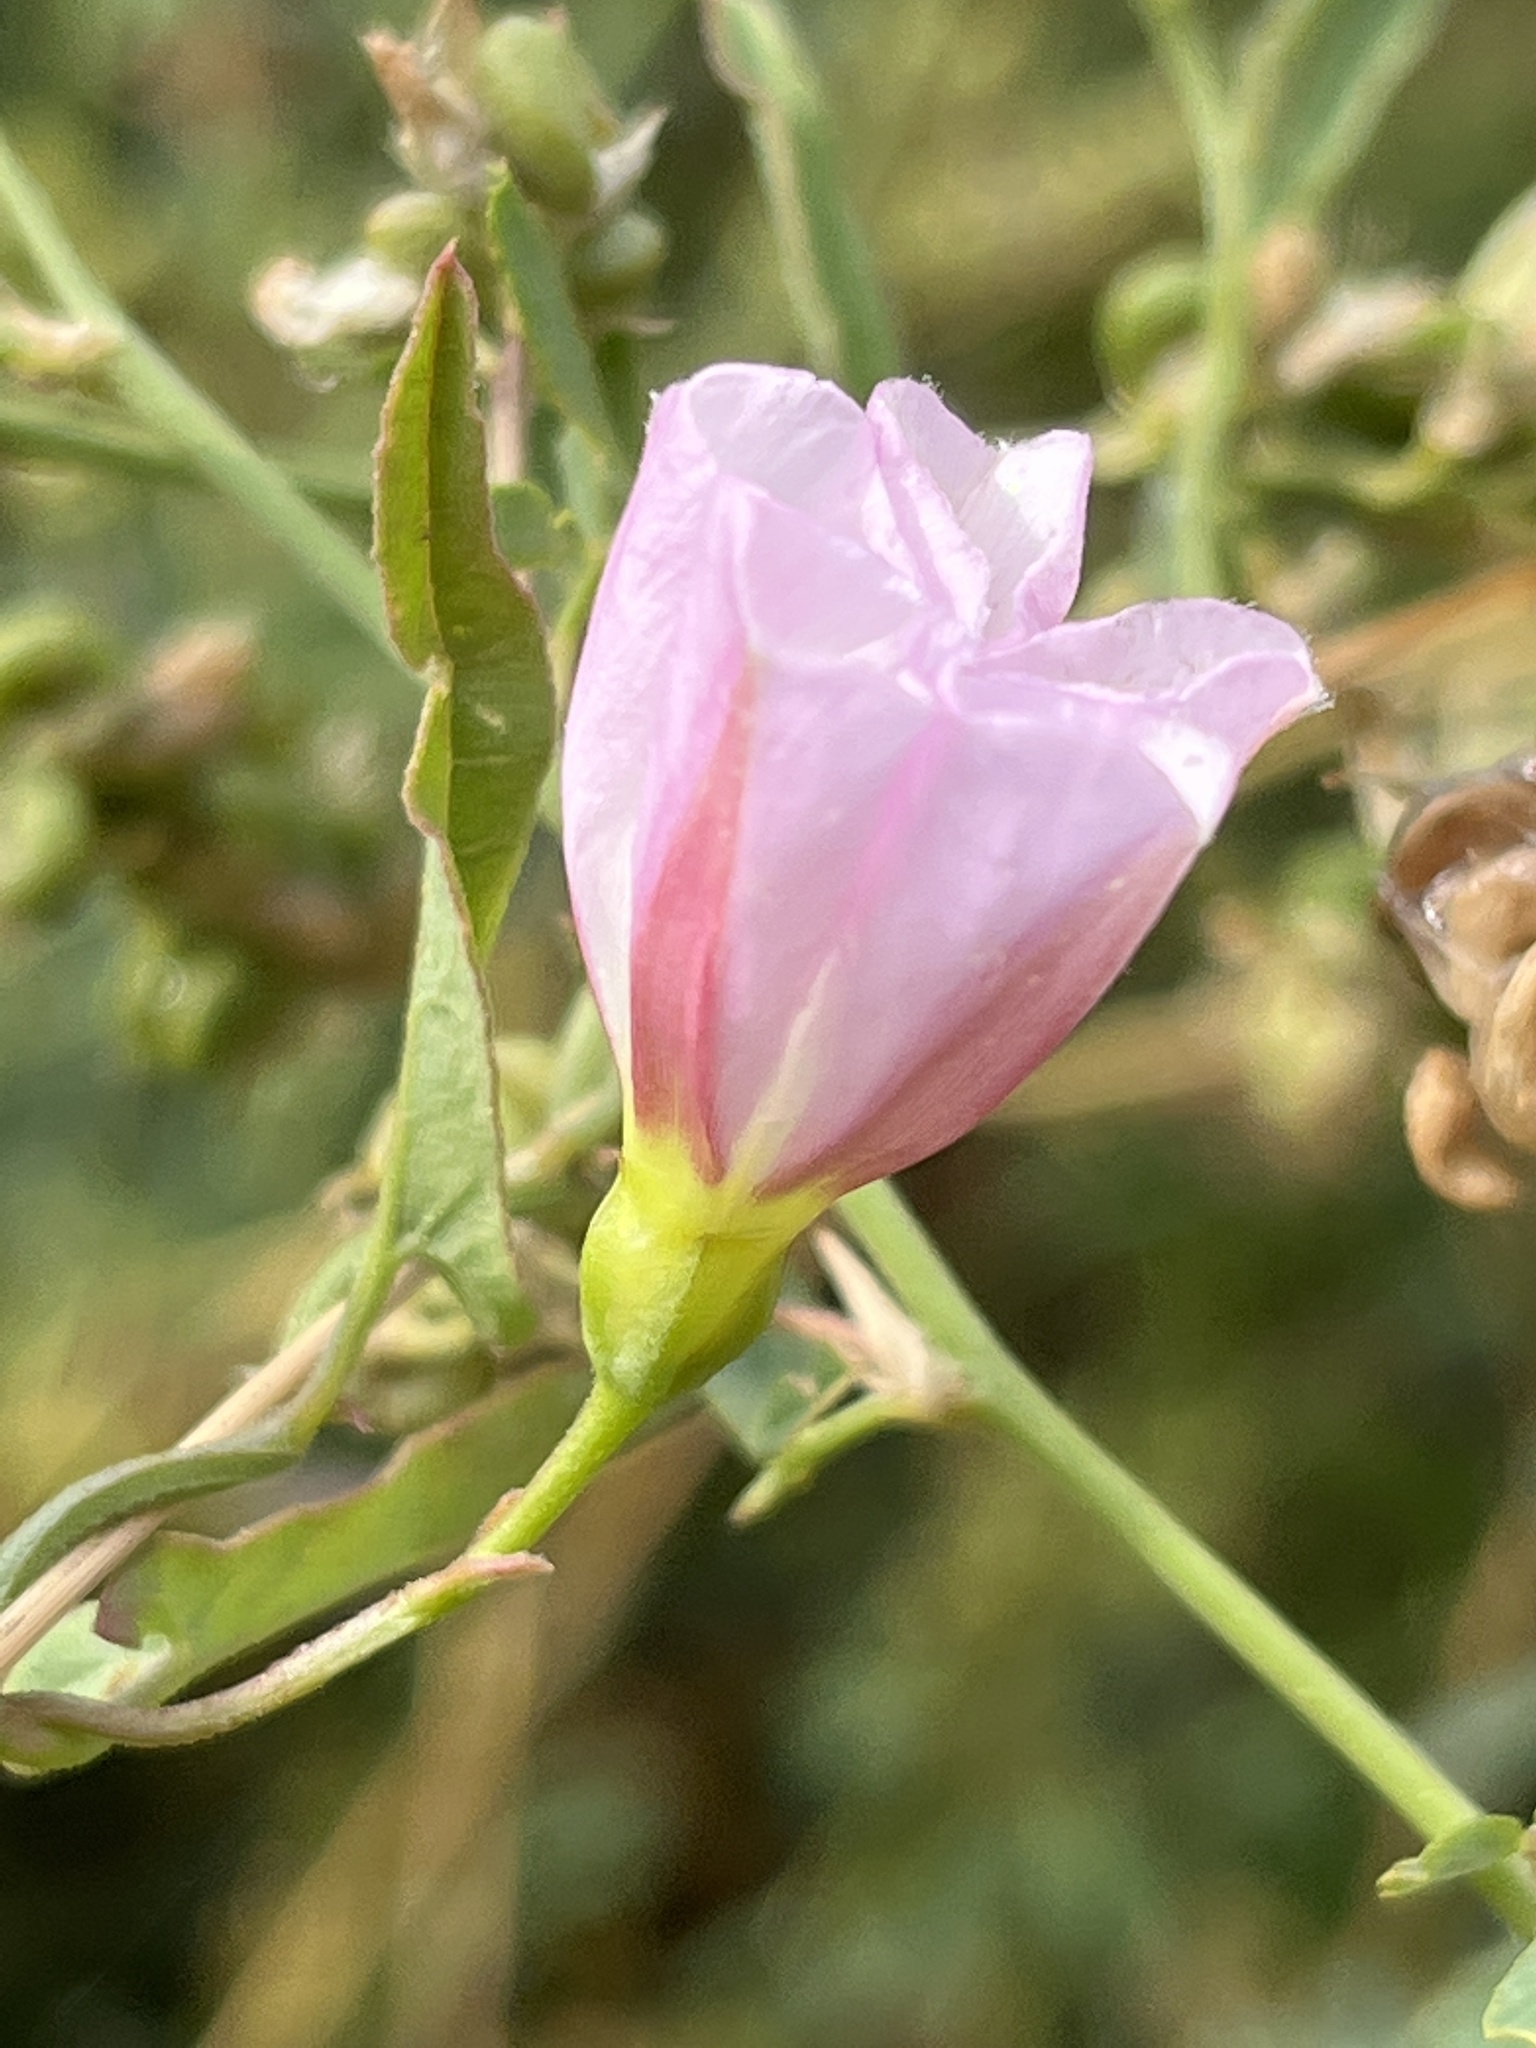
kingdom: Plantae
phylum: Tracheophyta
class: Magnoliopsida
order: Solanales
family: Convolvulaceae
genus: Convolvulus
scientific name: Convolvulus arvensis
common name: Field bindweed
